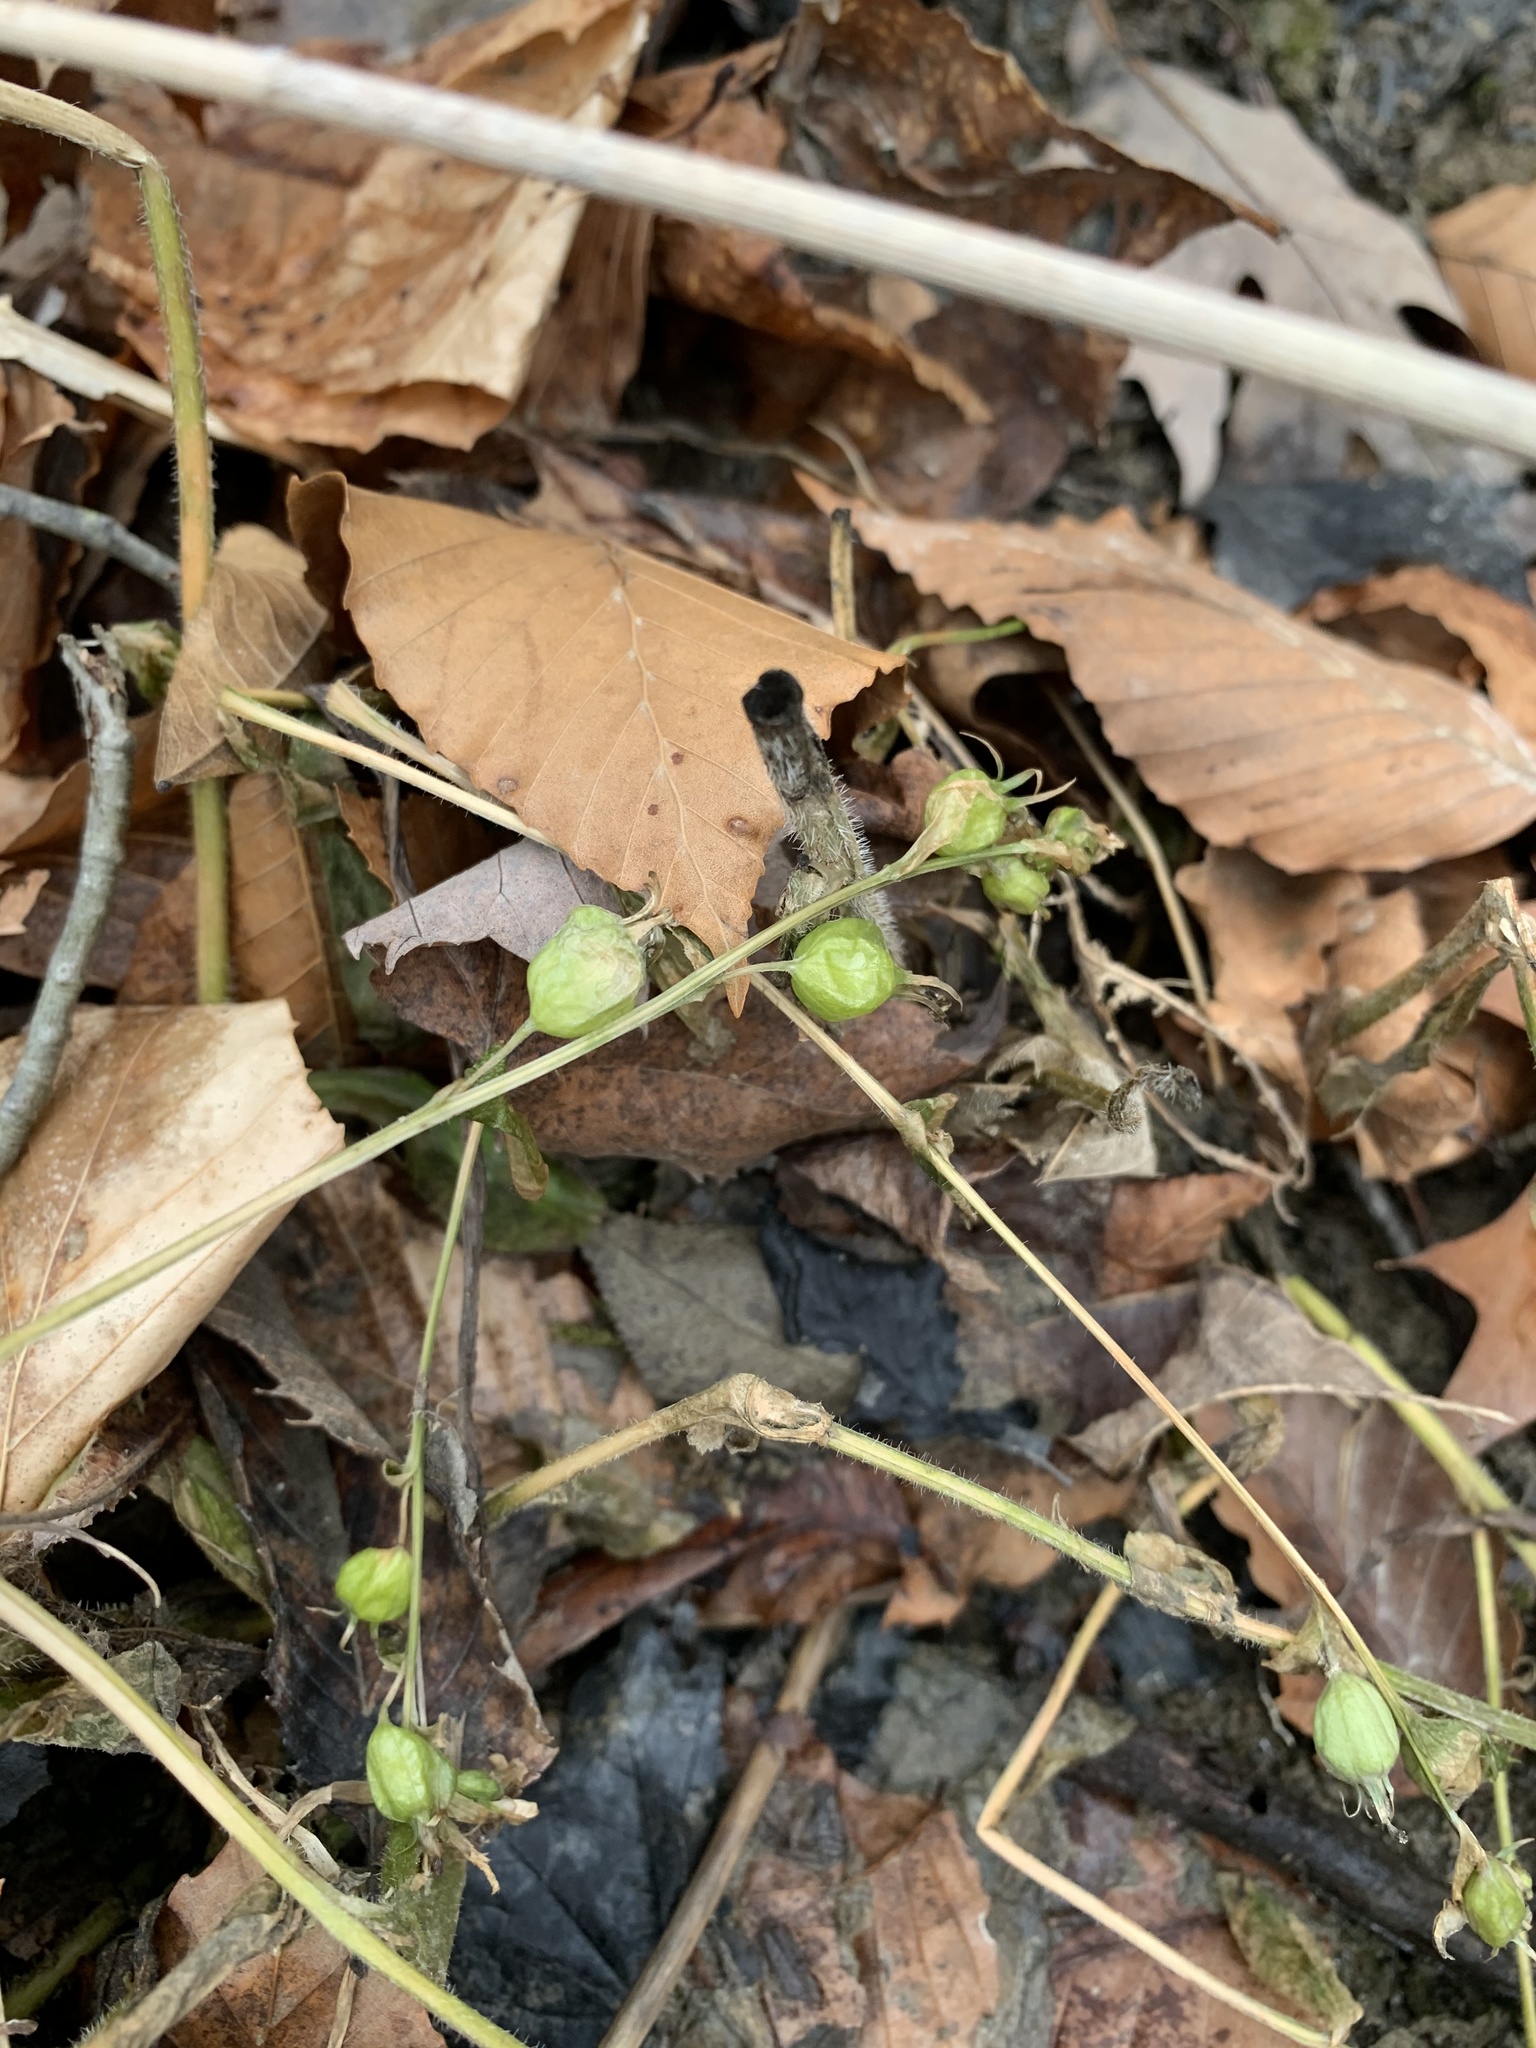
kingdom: Plantae
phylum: Tracheophyta
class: Magnoliopsida
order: Asterales
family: Campanulaceae
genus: Lobelia
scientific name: Lobelia inflata
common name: Indian tobacco
